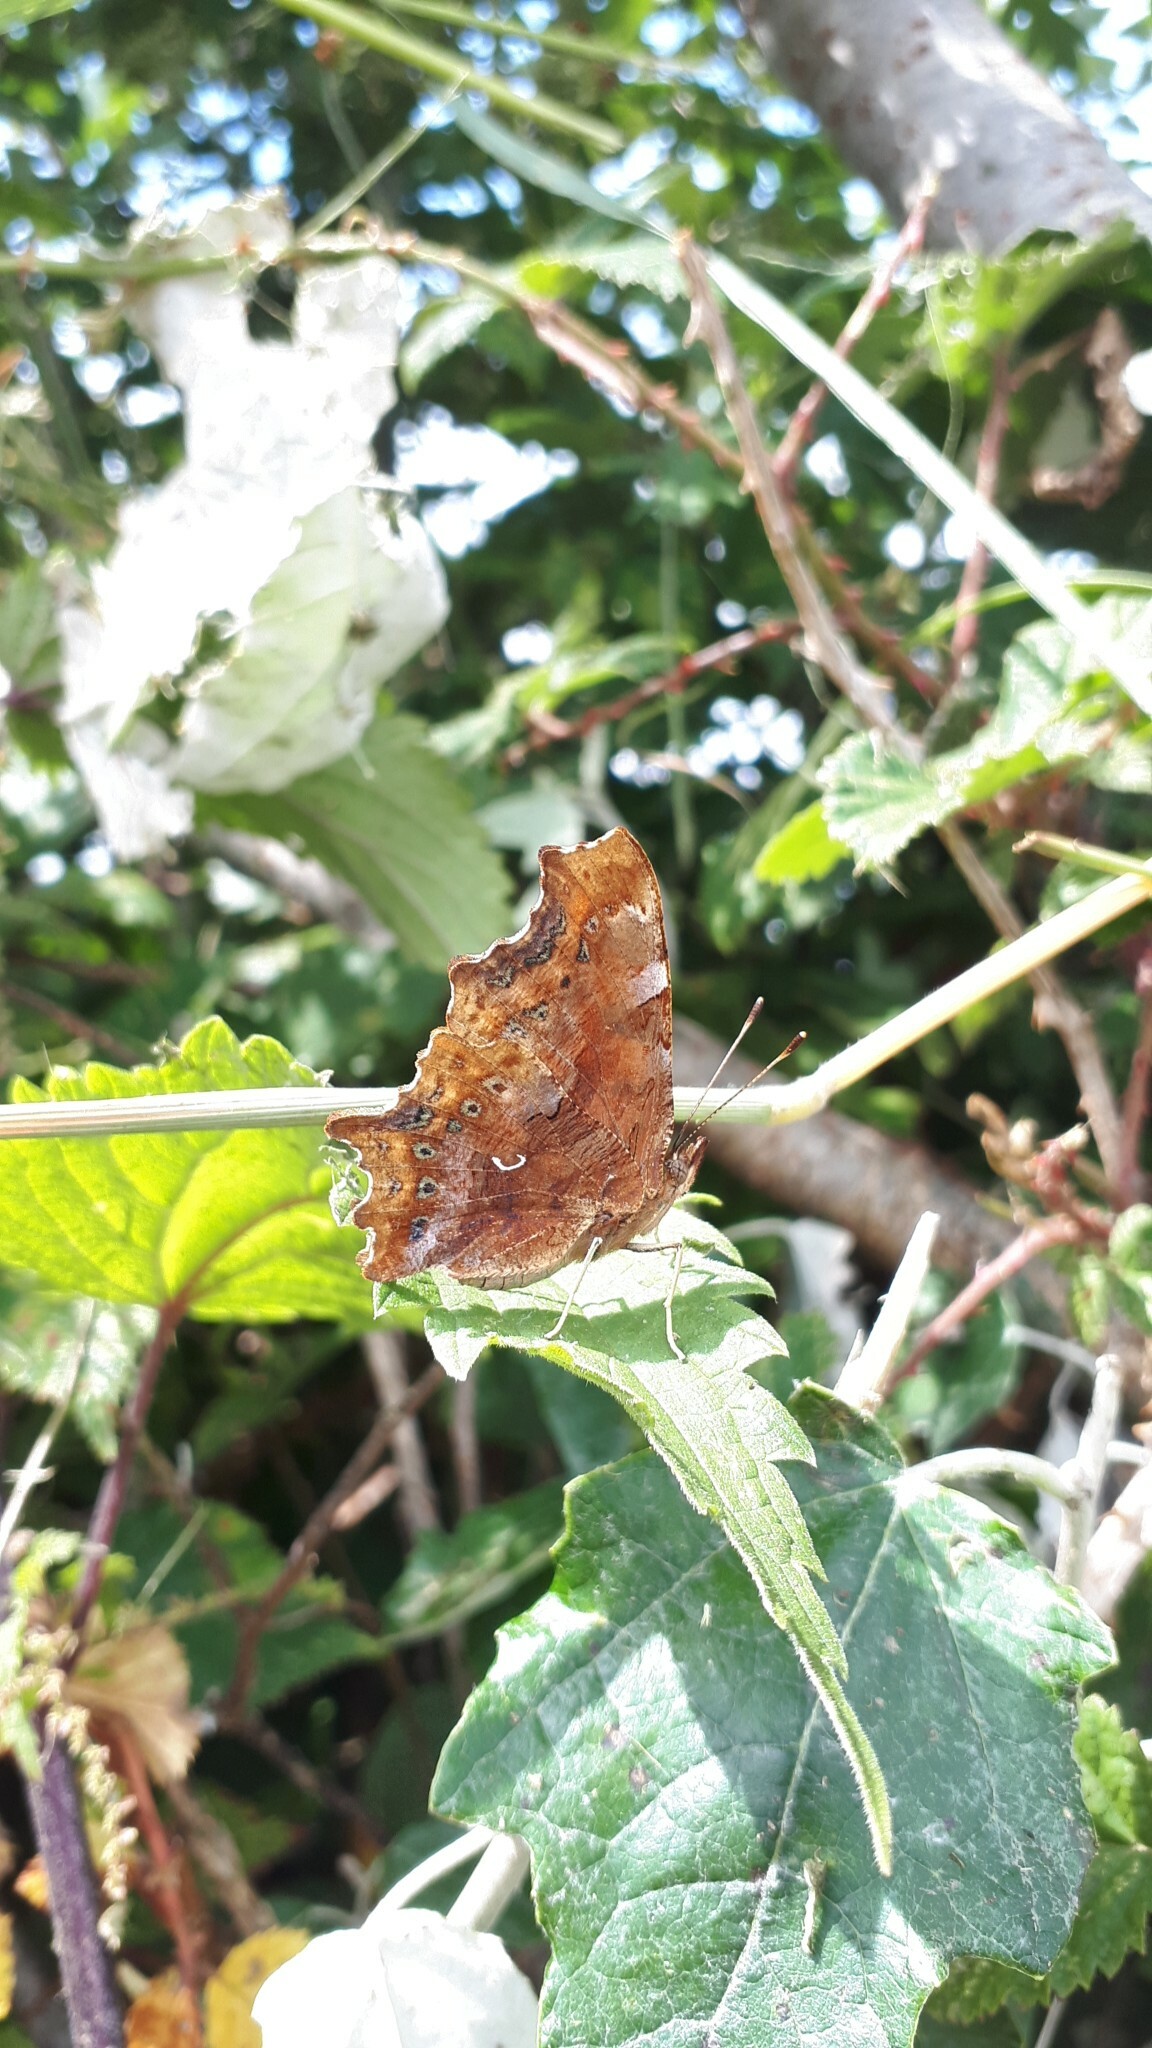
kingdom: Animalia
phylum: Arthropoda
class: Insecta
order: Lepidoptera
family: Nymphalidae
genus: Polygonia
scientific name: Polygonia c-album
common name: Comma
